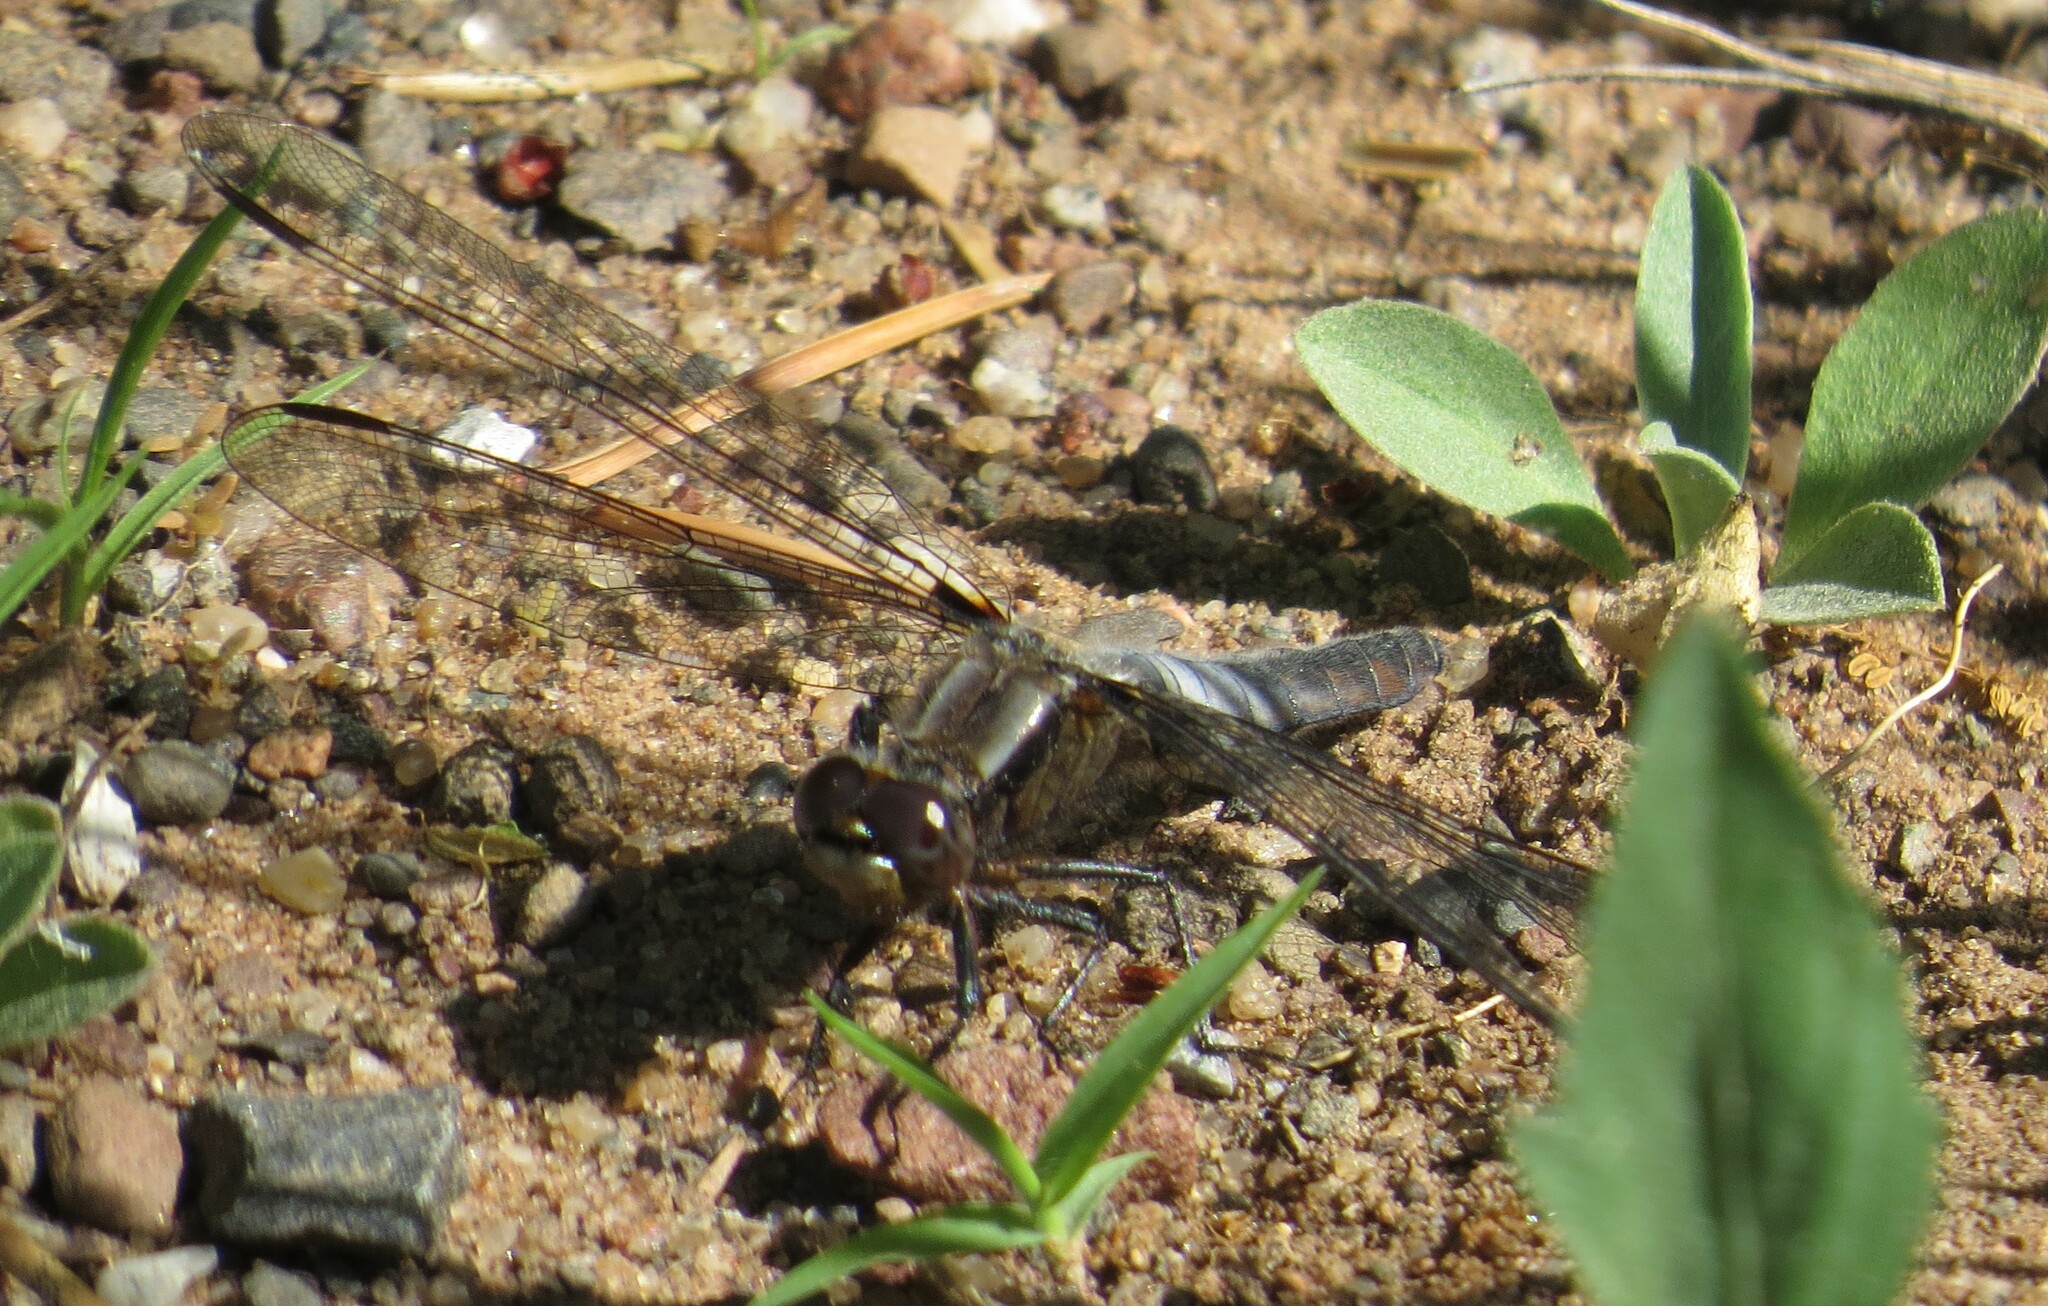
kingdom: Animalia
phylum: Arthropoda
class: Insecta
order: Odonata
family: Libellulidae
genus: Ladona
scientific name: Ladona julia
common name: Chalk-fronted corporal
